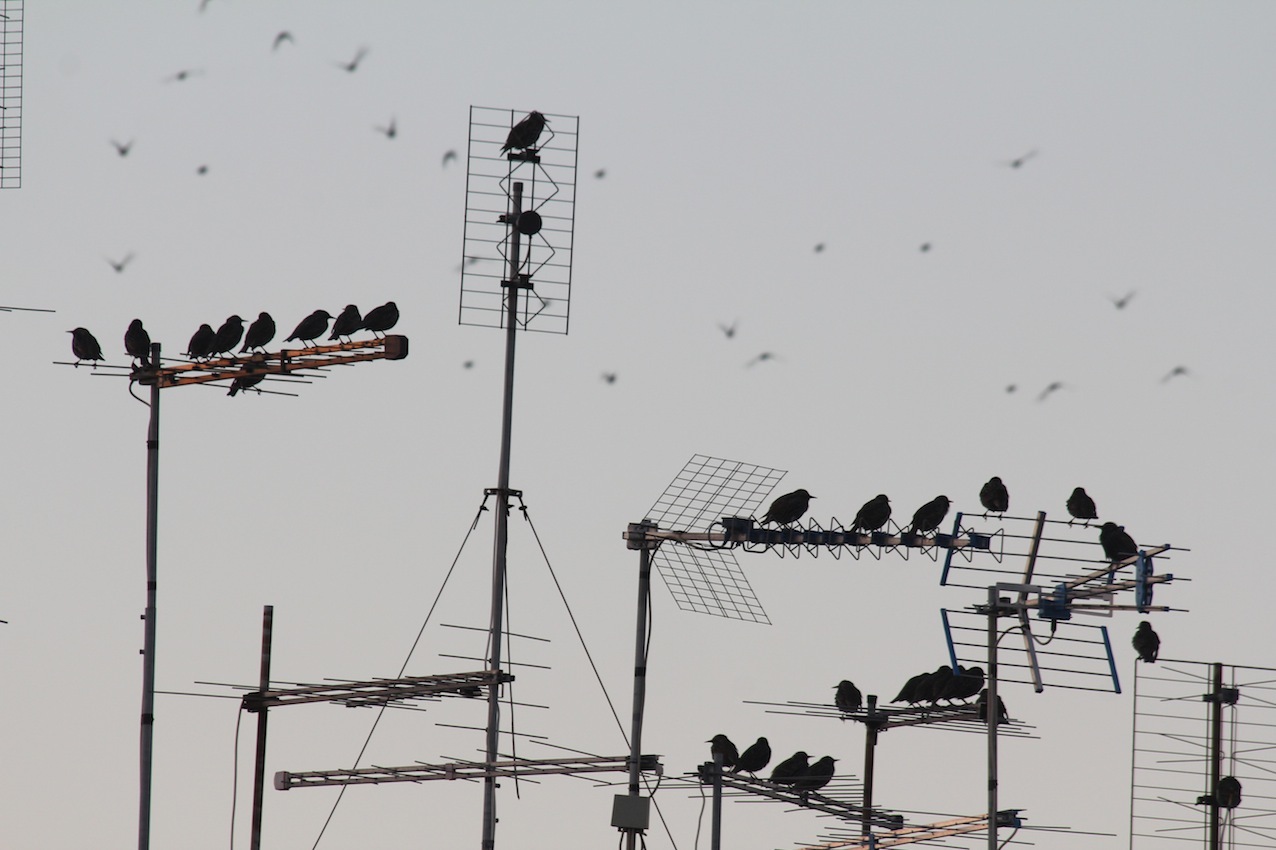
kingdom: Animalia
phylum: Chordata
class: Aves
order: Passeriformes
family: Sturnidae
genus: Sturnus
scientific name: Sturnus vulgaris
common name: Common starling
